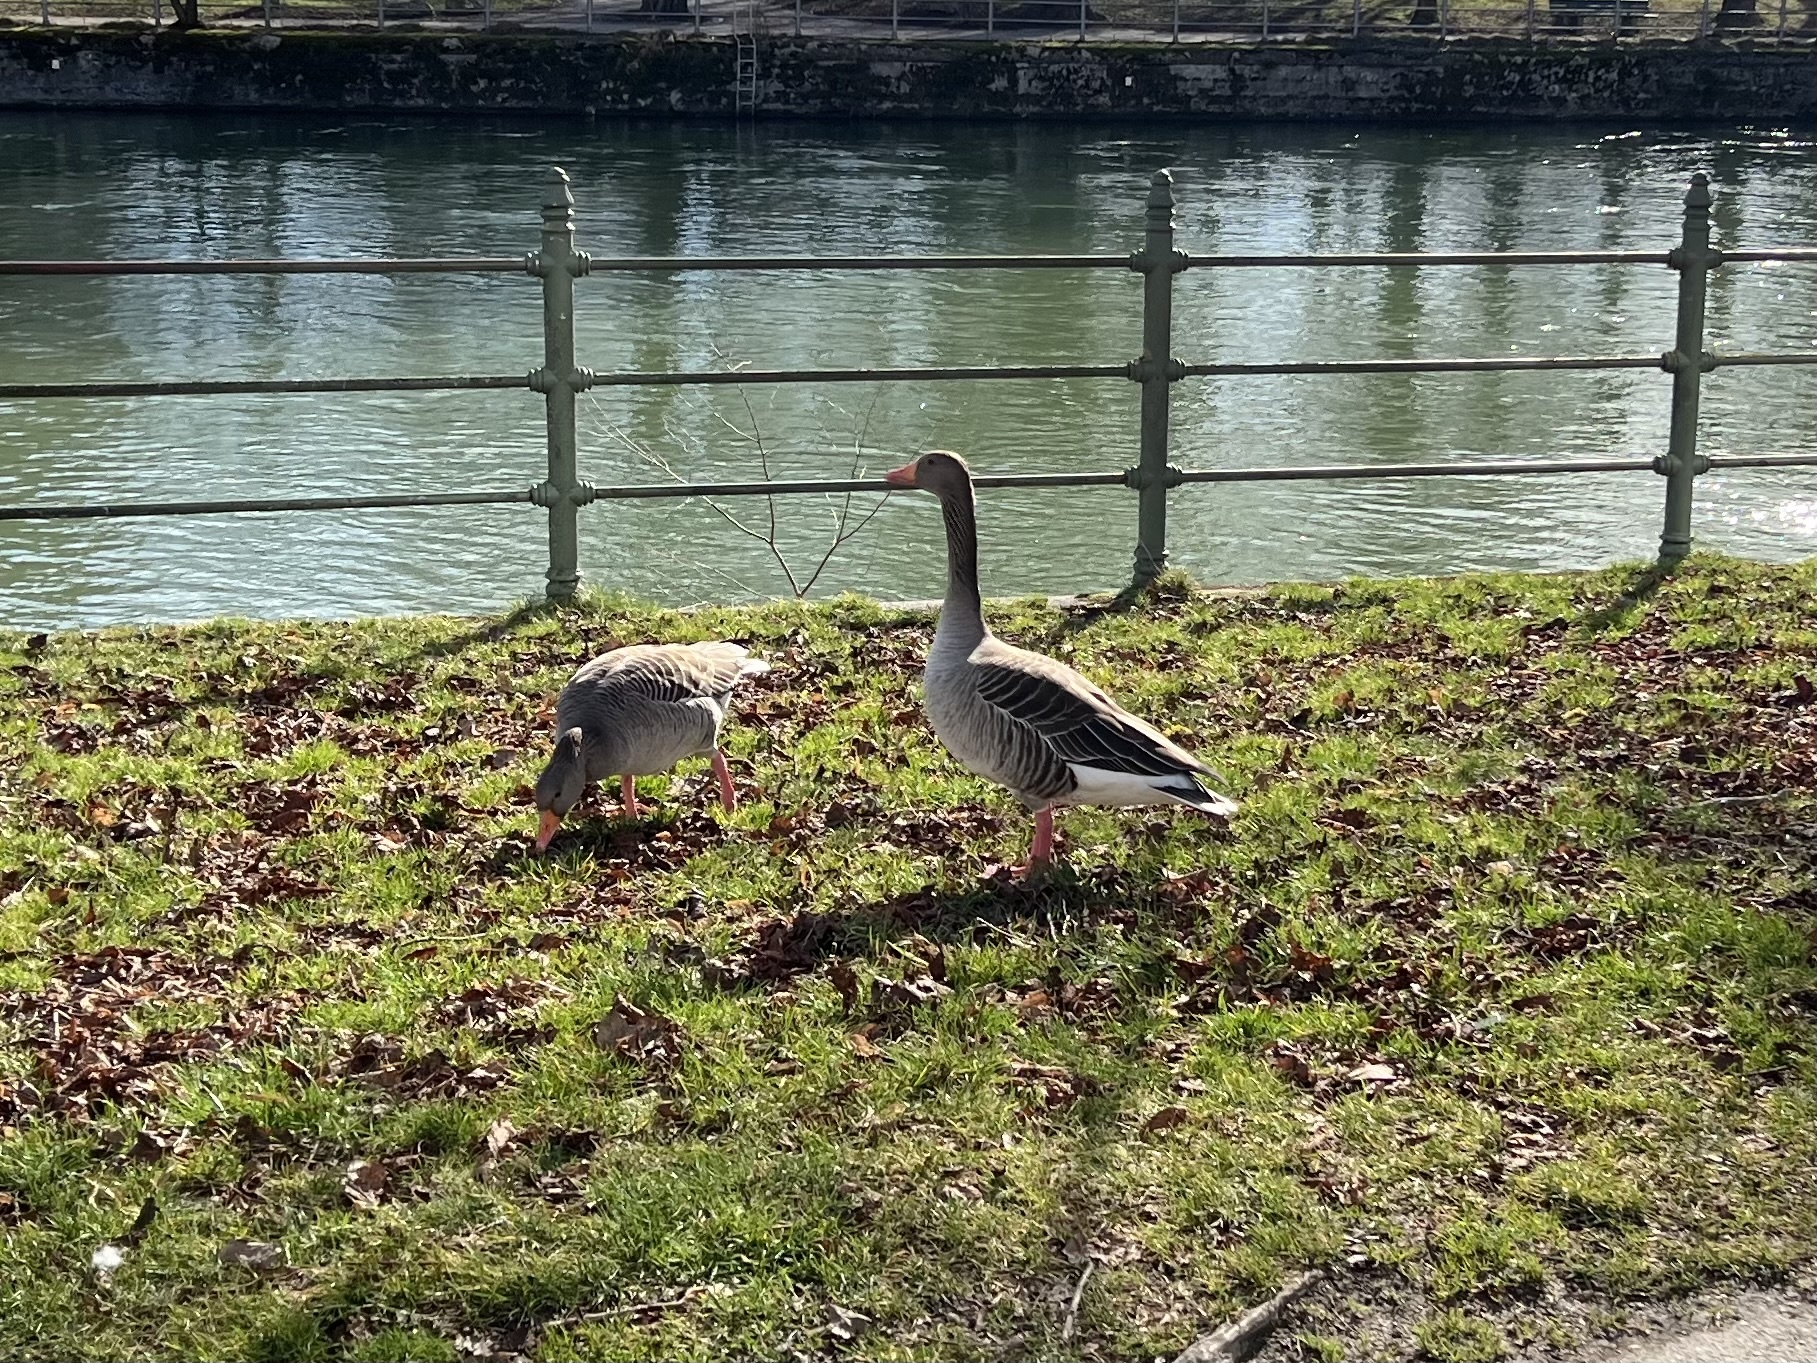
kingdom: Animalia
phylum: Chordata
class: Aves
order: Anseriformes
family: Anatidae
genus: Anser
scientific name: Anser anser
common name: Greylag goose
